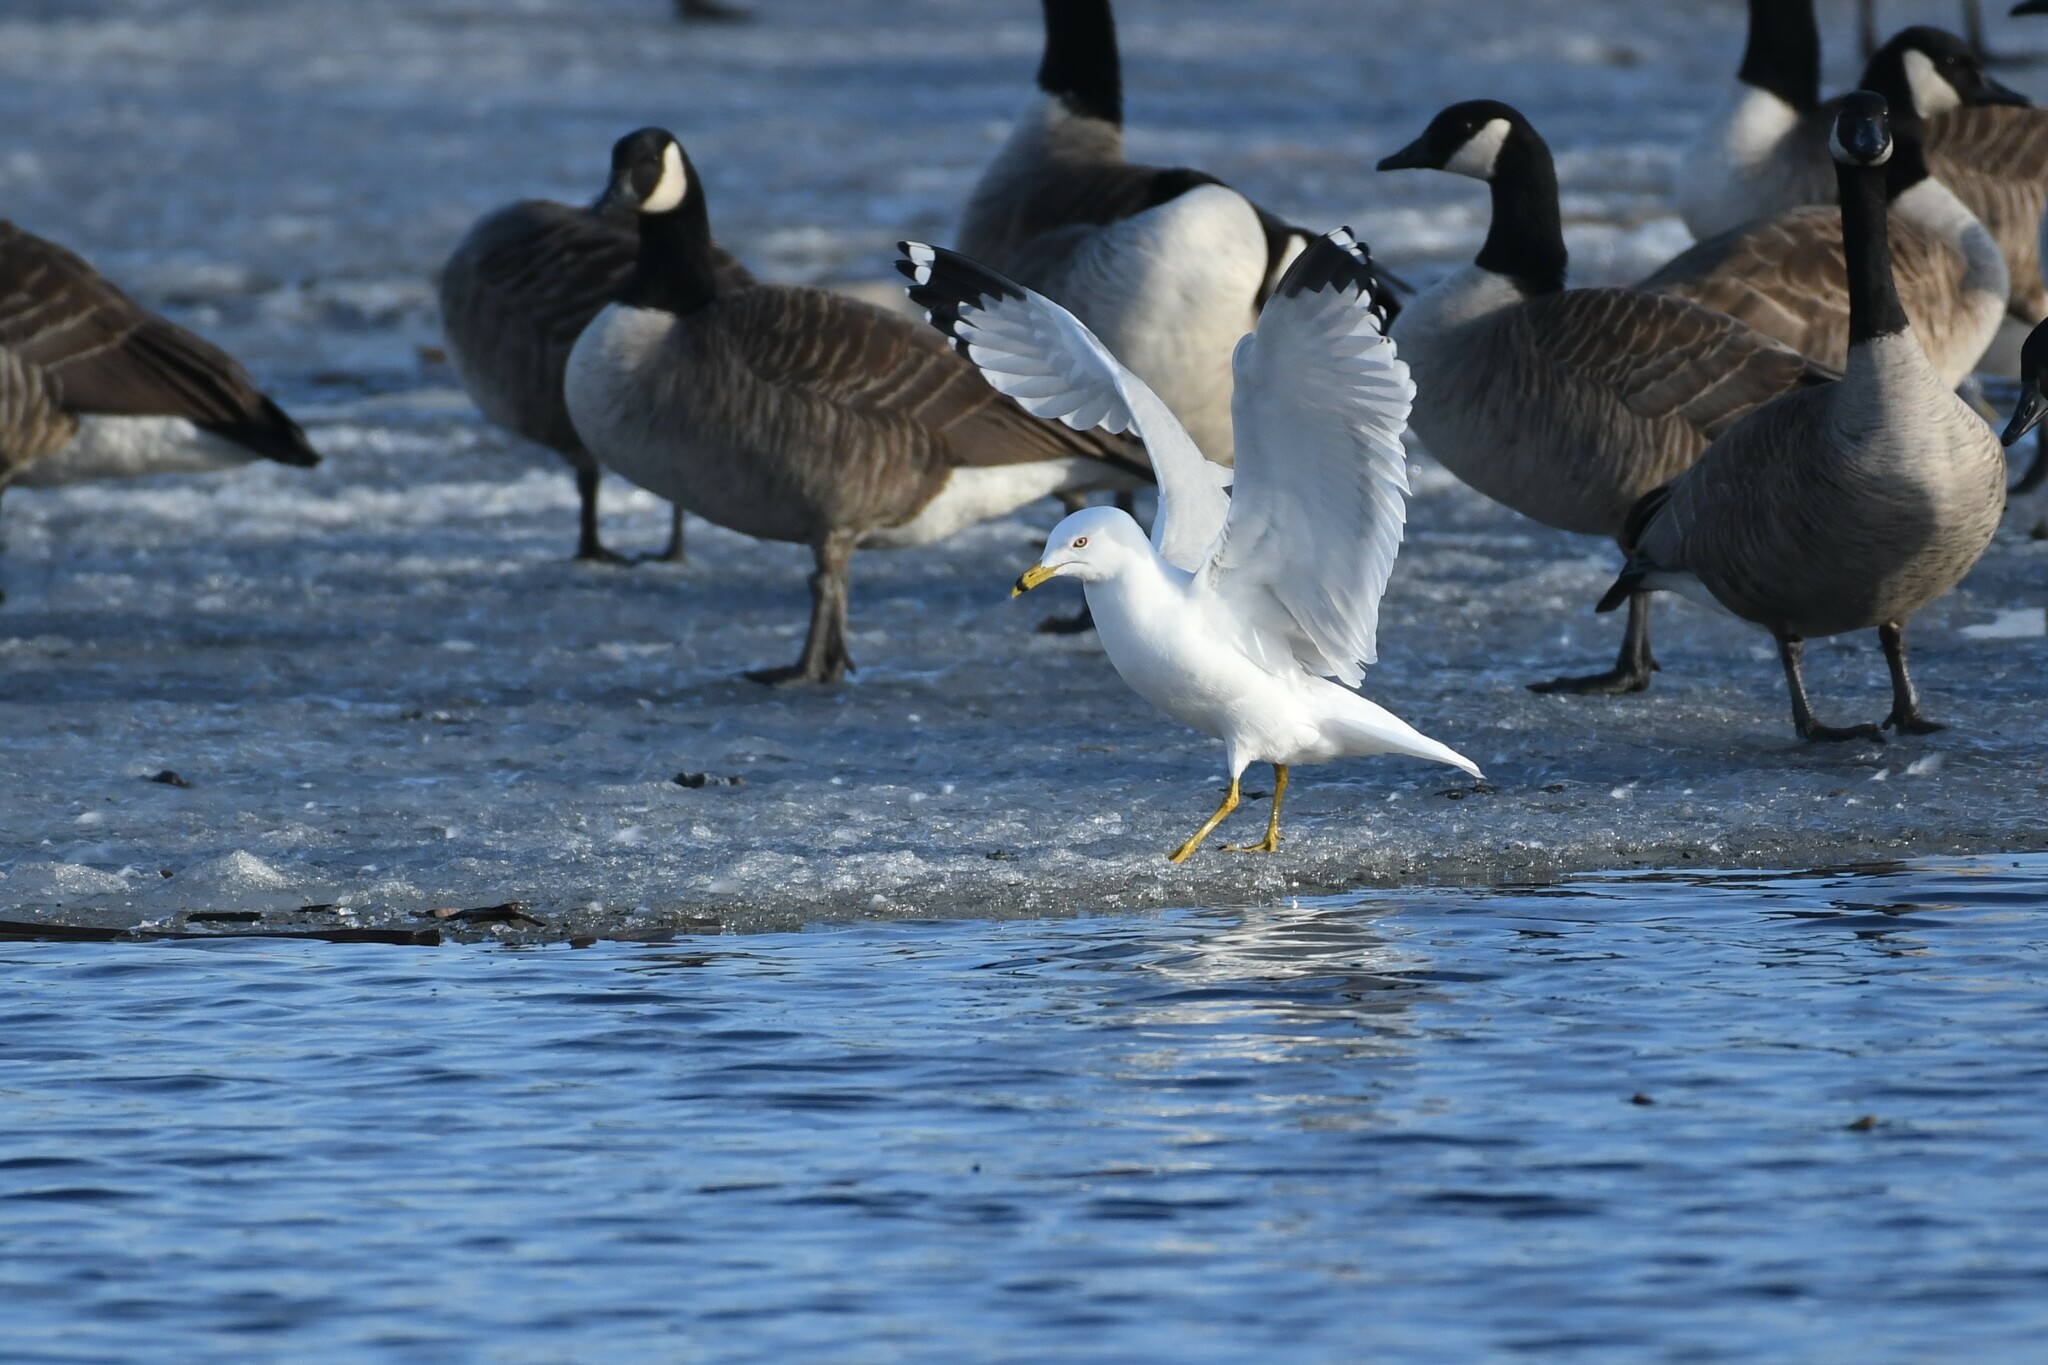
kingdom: Animalia
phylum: Chordata
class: Aves
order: Charadriiformes
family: Laridae
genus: Larus
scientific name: Larus delawarensis
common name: Ring-billed gull
